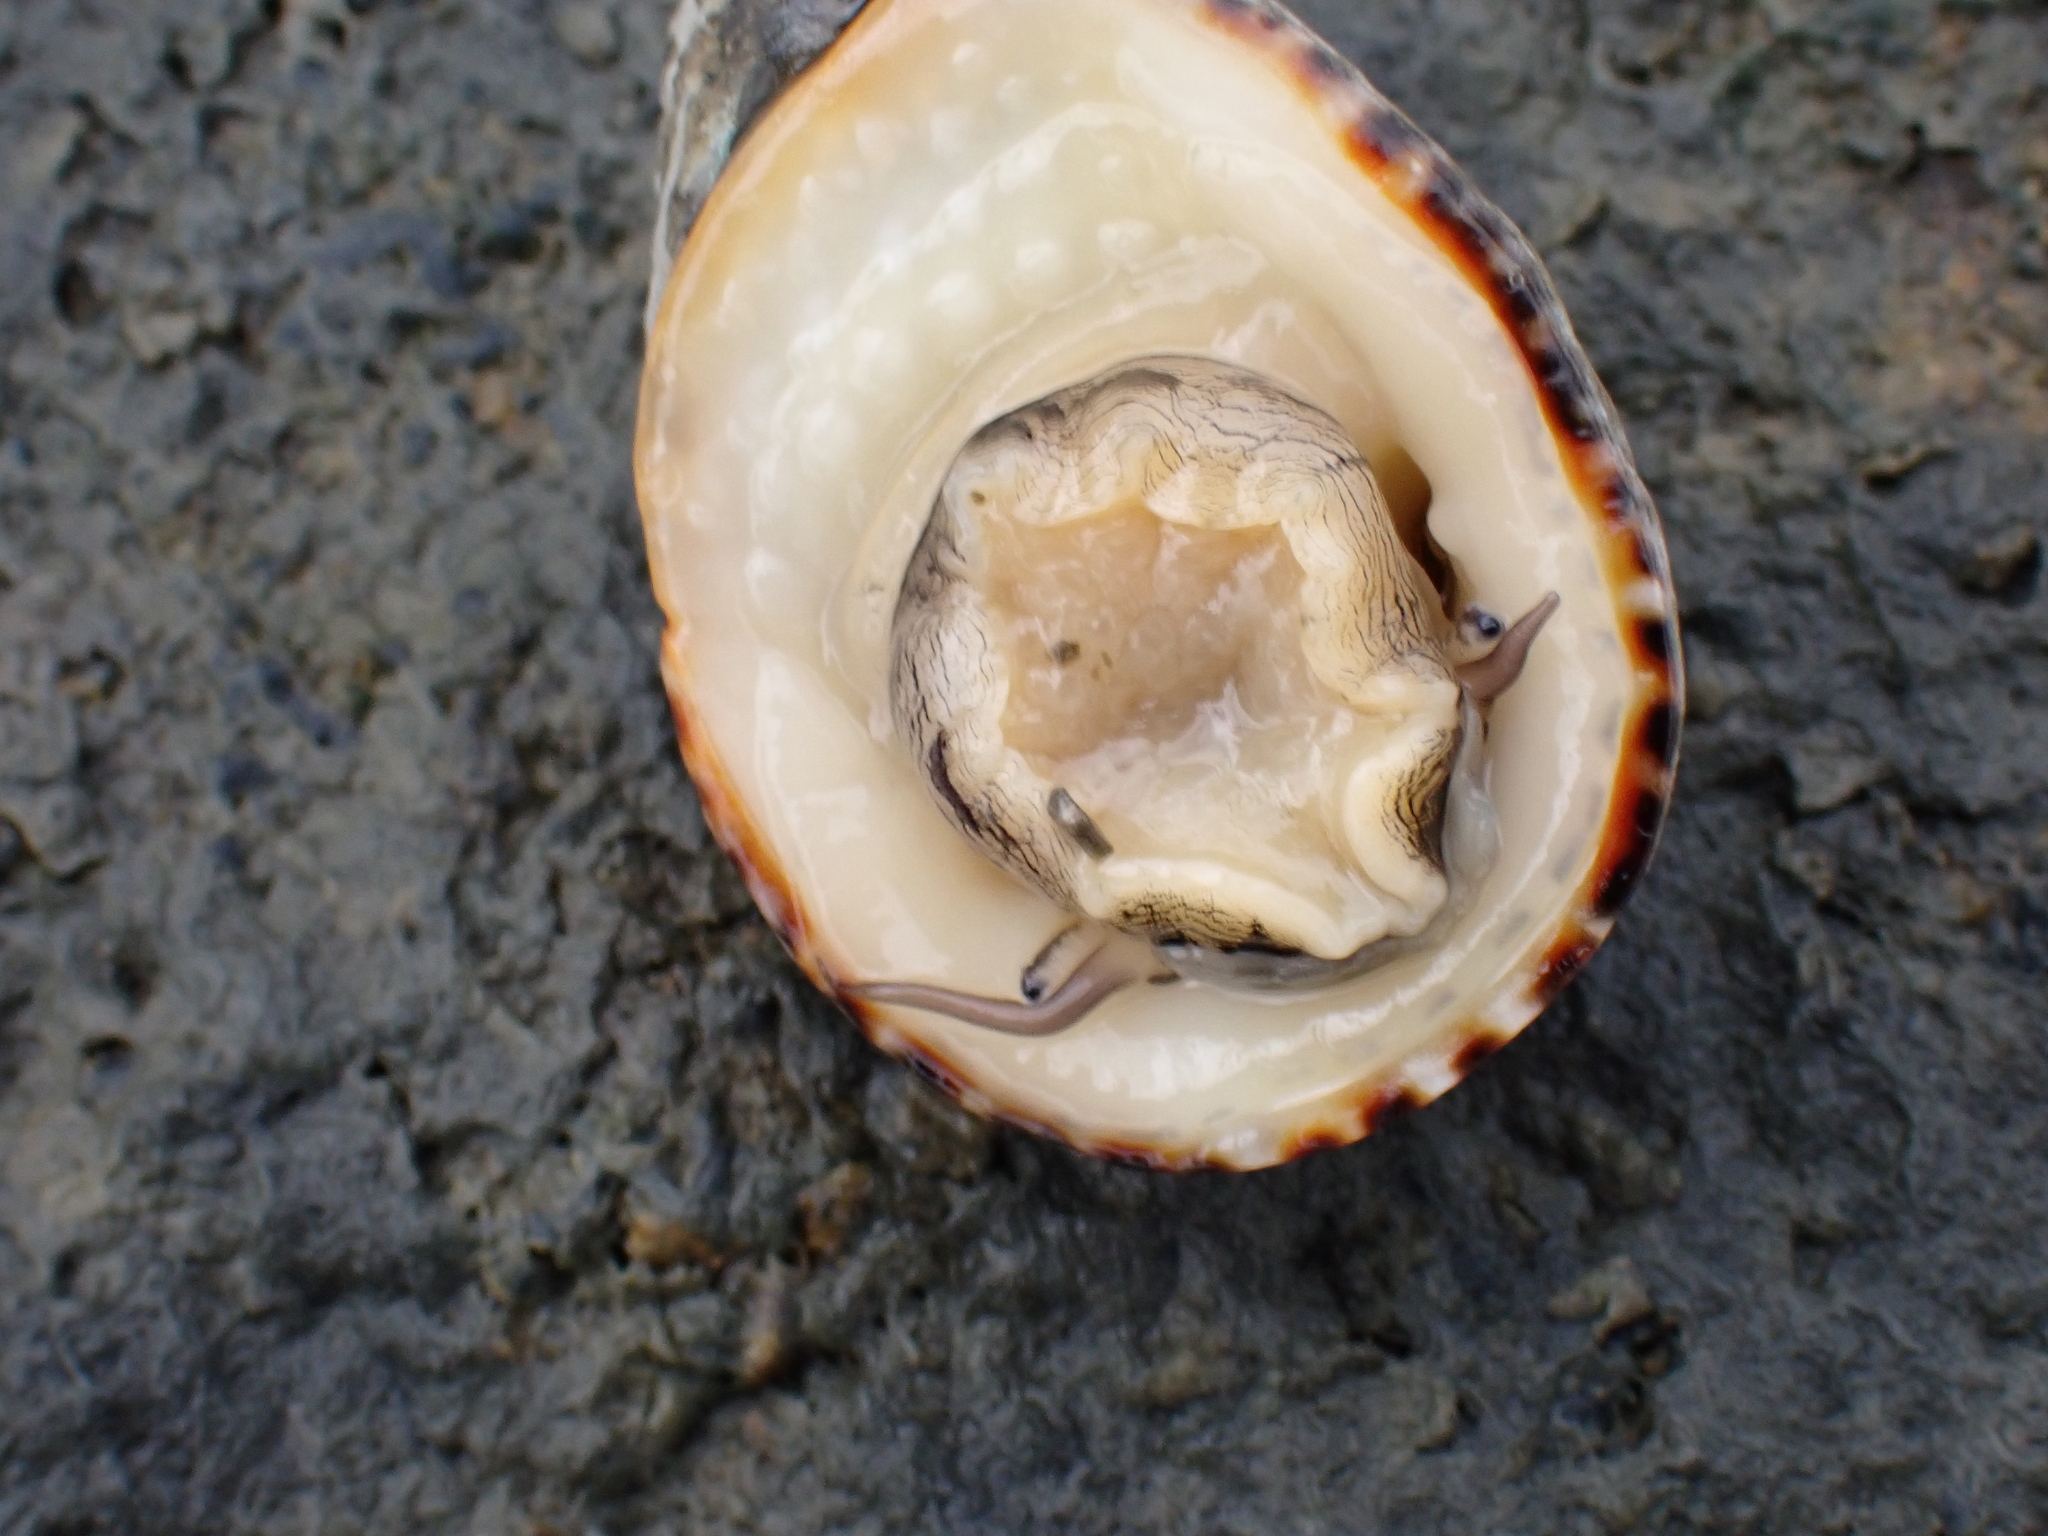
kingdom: Animalia
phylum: Mollusca
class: Gastropoda
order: Cycloneritida
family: Neritidae
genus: Nerita
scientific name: Nerita albicilla
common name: Blotched nerite
